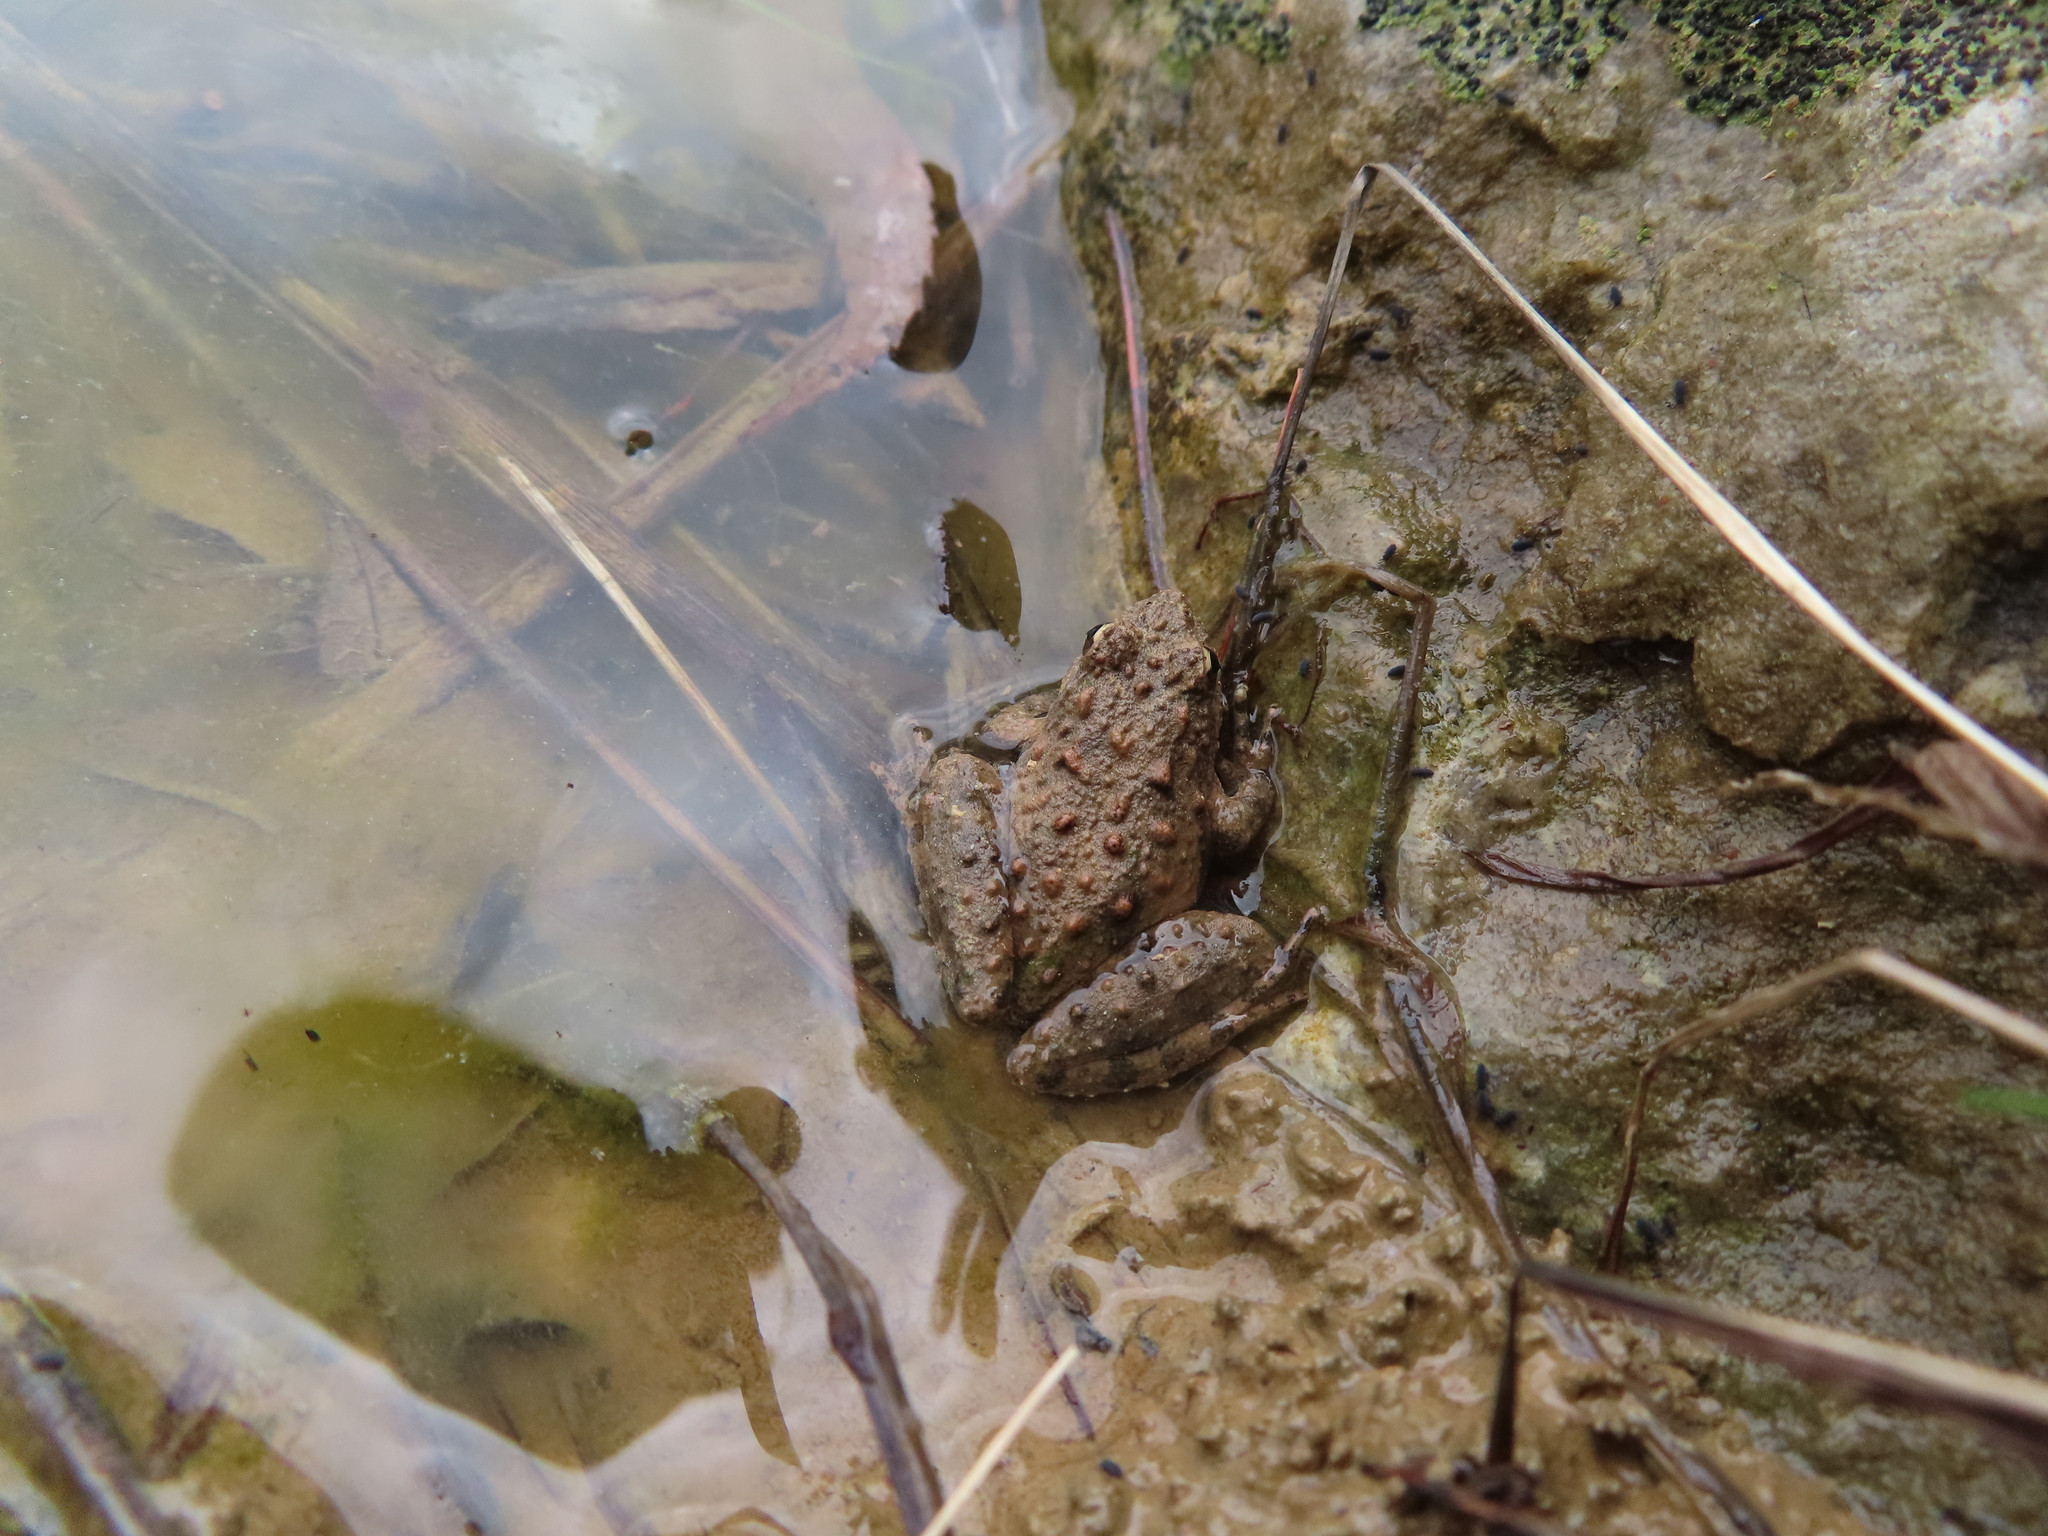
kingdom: Animalia
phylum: Chordata
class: Amphibia
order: Anura
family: Hylidae
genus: Acris
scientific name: Acris blanchardi
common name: Blanchard's cricket frog
